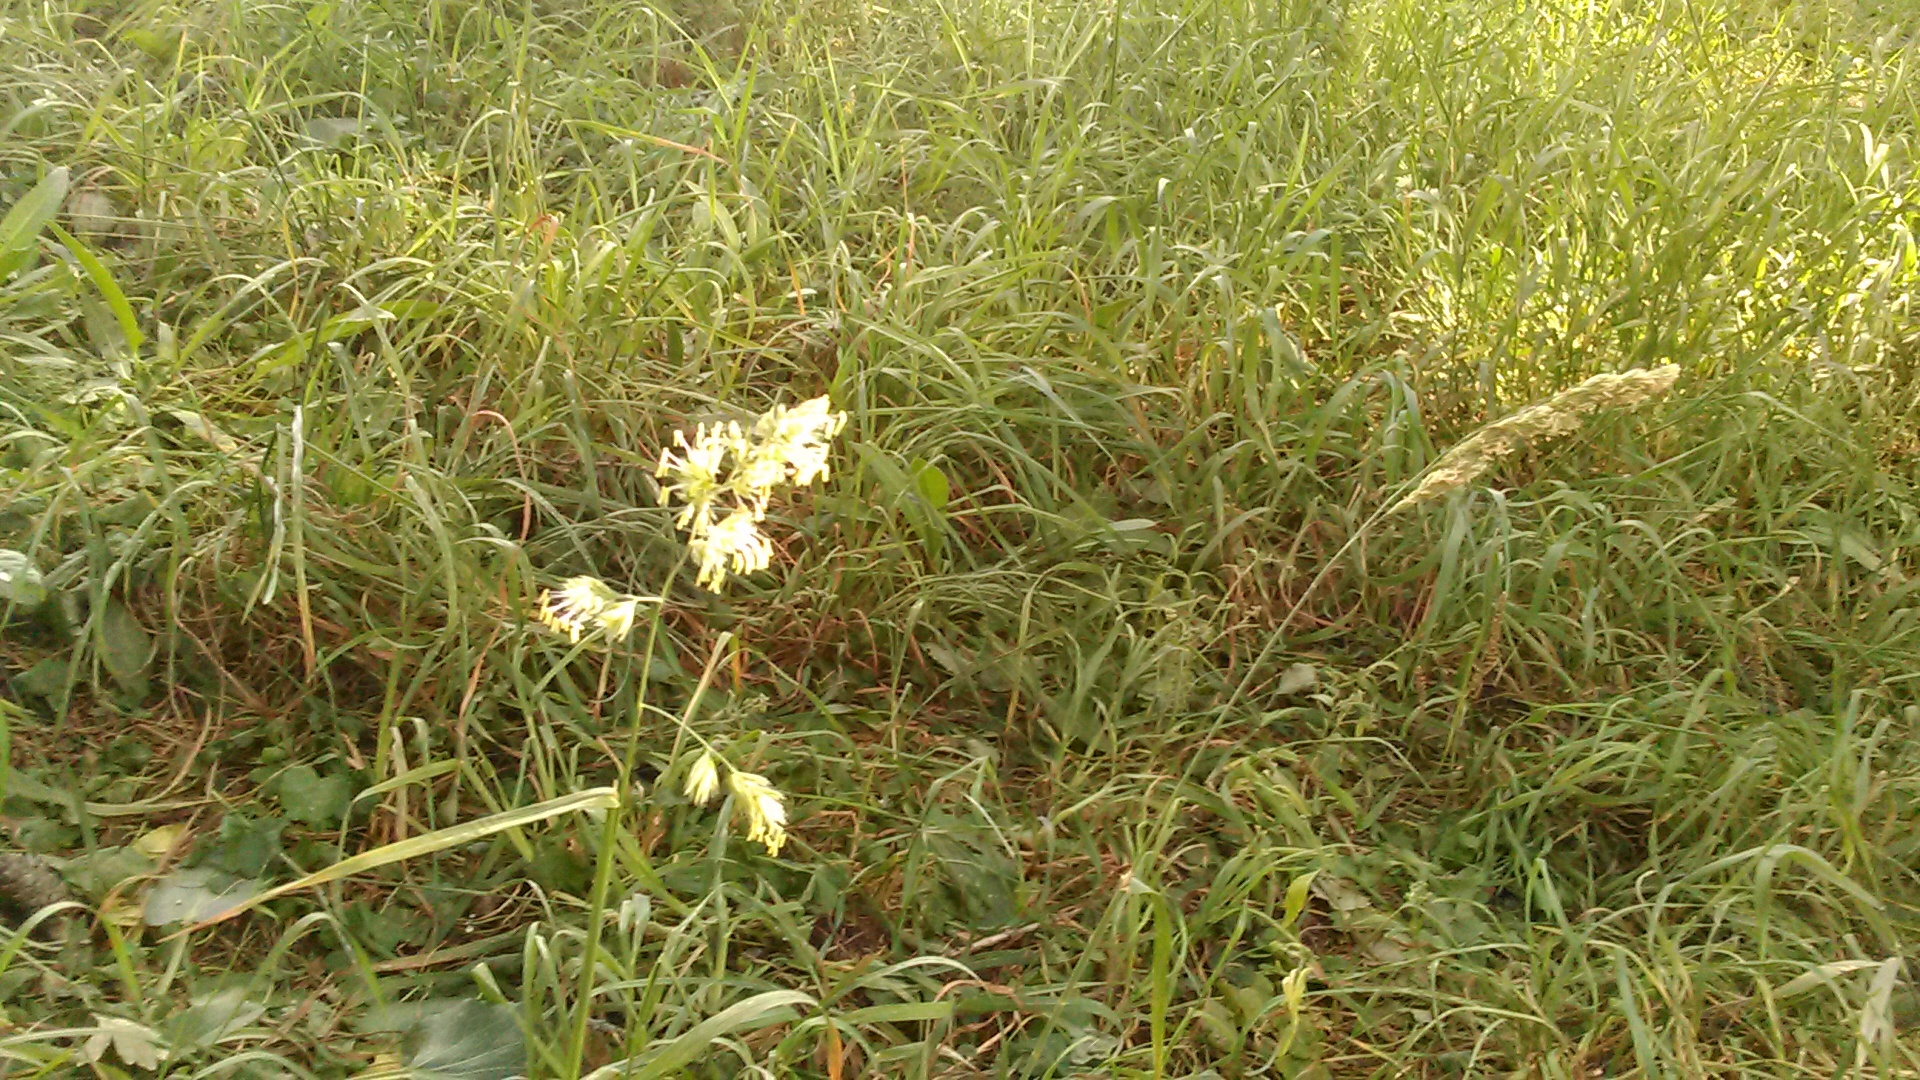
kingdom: Plantae
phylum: Tracheophyta
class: Liliopsida
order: Poales
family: Poaceae
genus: Dactylis
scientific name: Dactylis glomerata
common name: Orchardgrass
